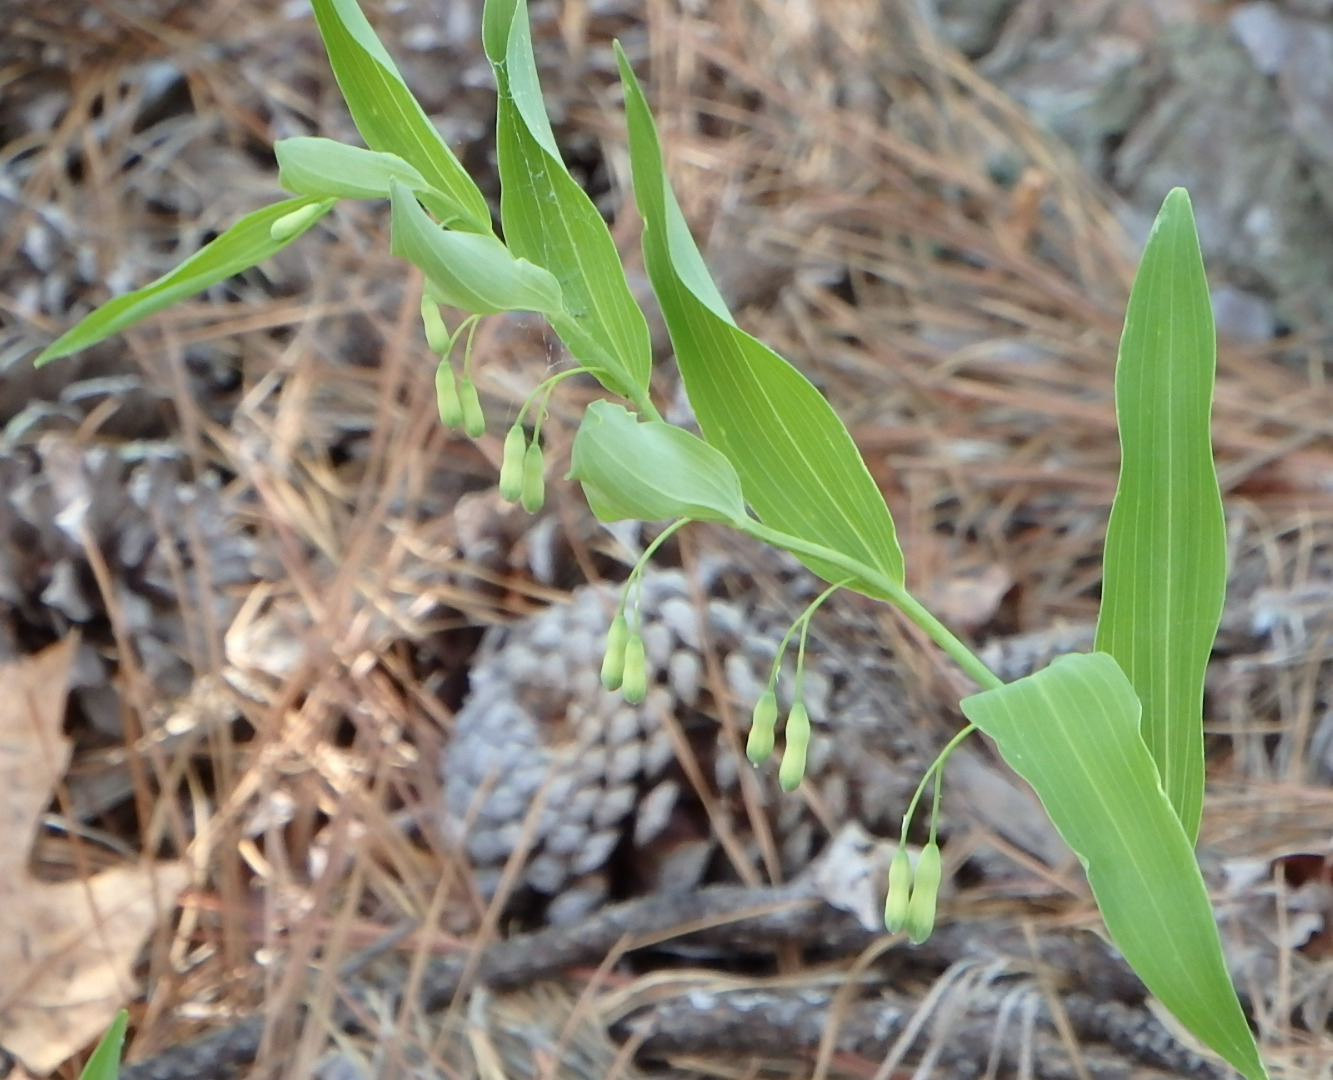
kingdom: Plantae
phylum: Tracheophyta
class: Liliopsida
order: Asparagales
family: Asparagaceae
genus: Polygonatum
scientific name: Polygonatum biflorum
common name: American solomon's-seal
